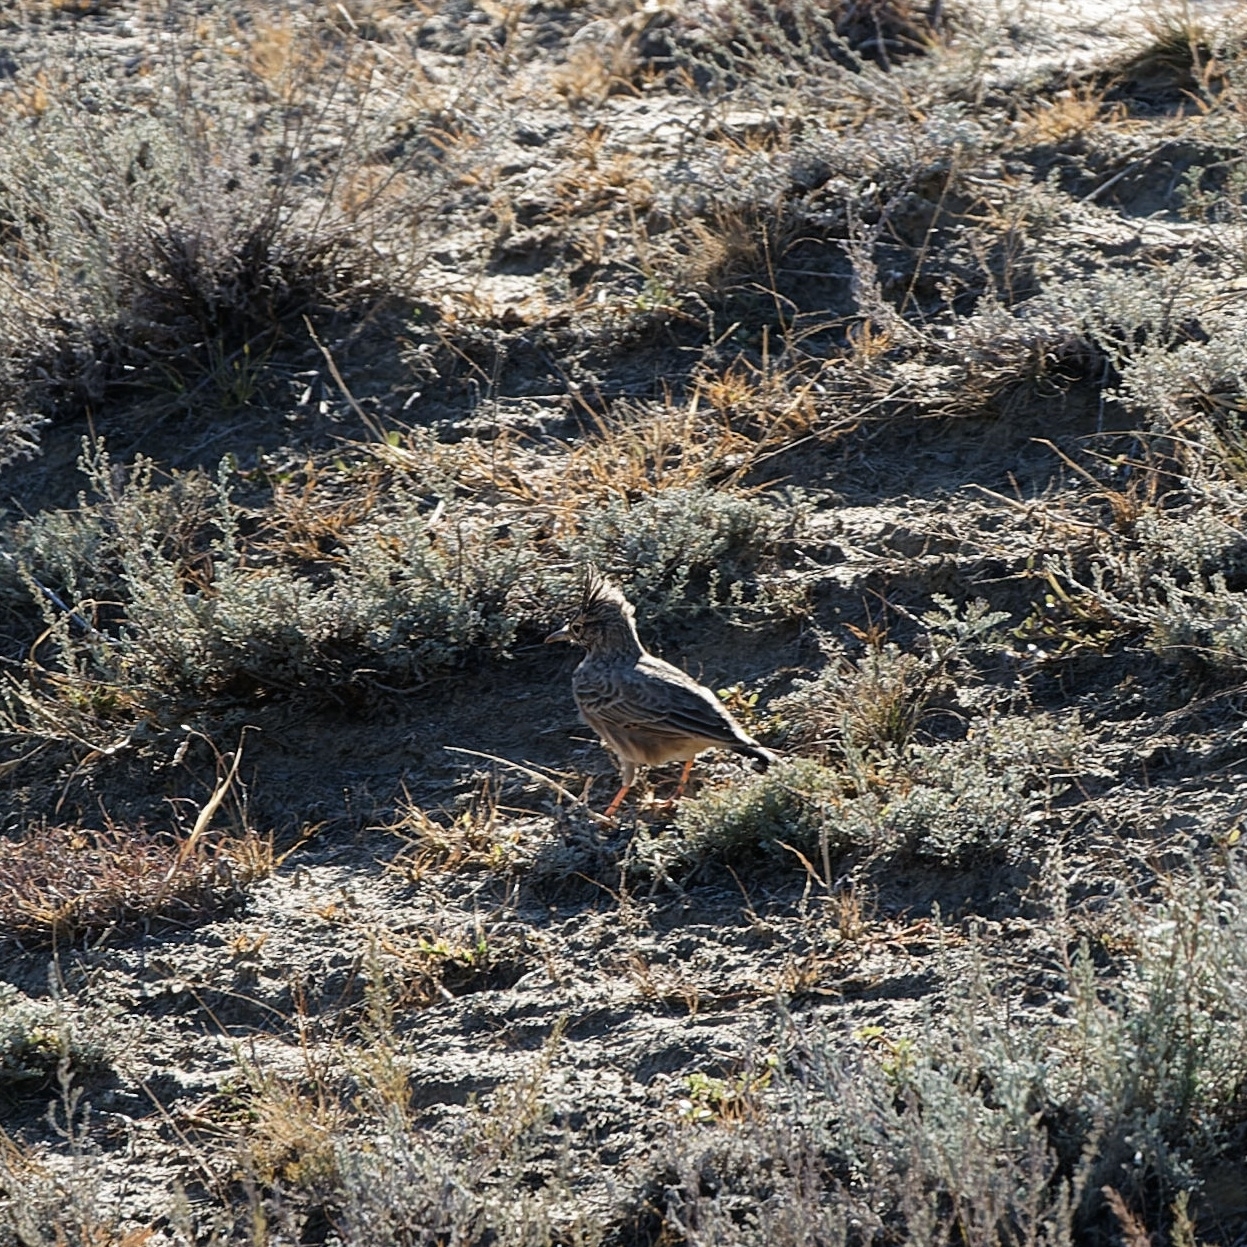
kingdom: Animalia
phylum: Chordata
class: Aves
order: Passeriformes
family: Alaudidae
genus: Galerida
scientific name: Galerida cristata
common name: Crested lark
